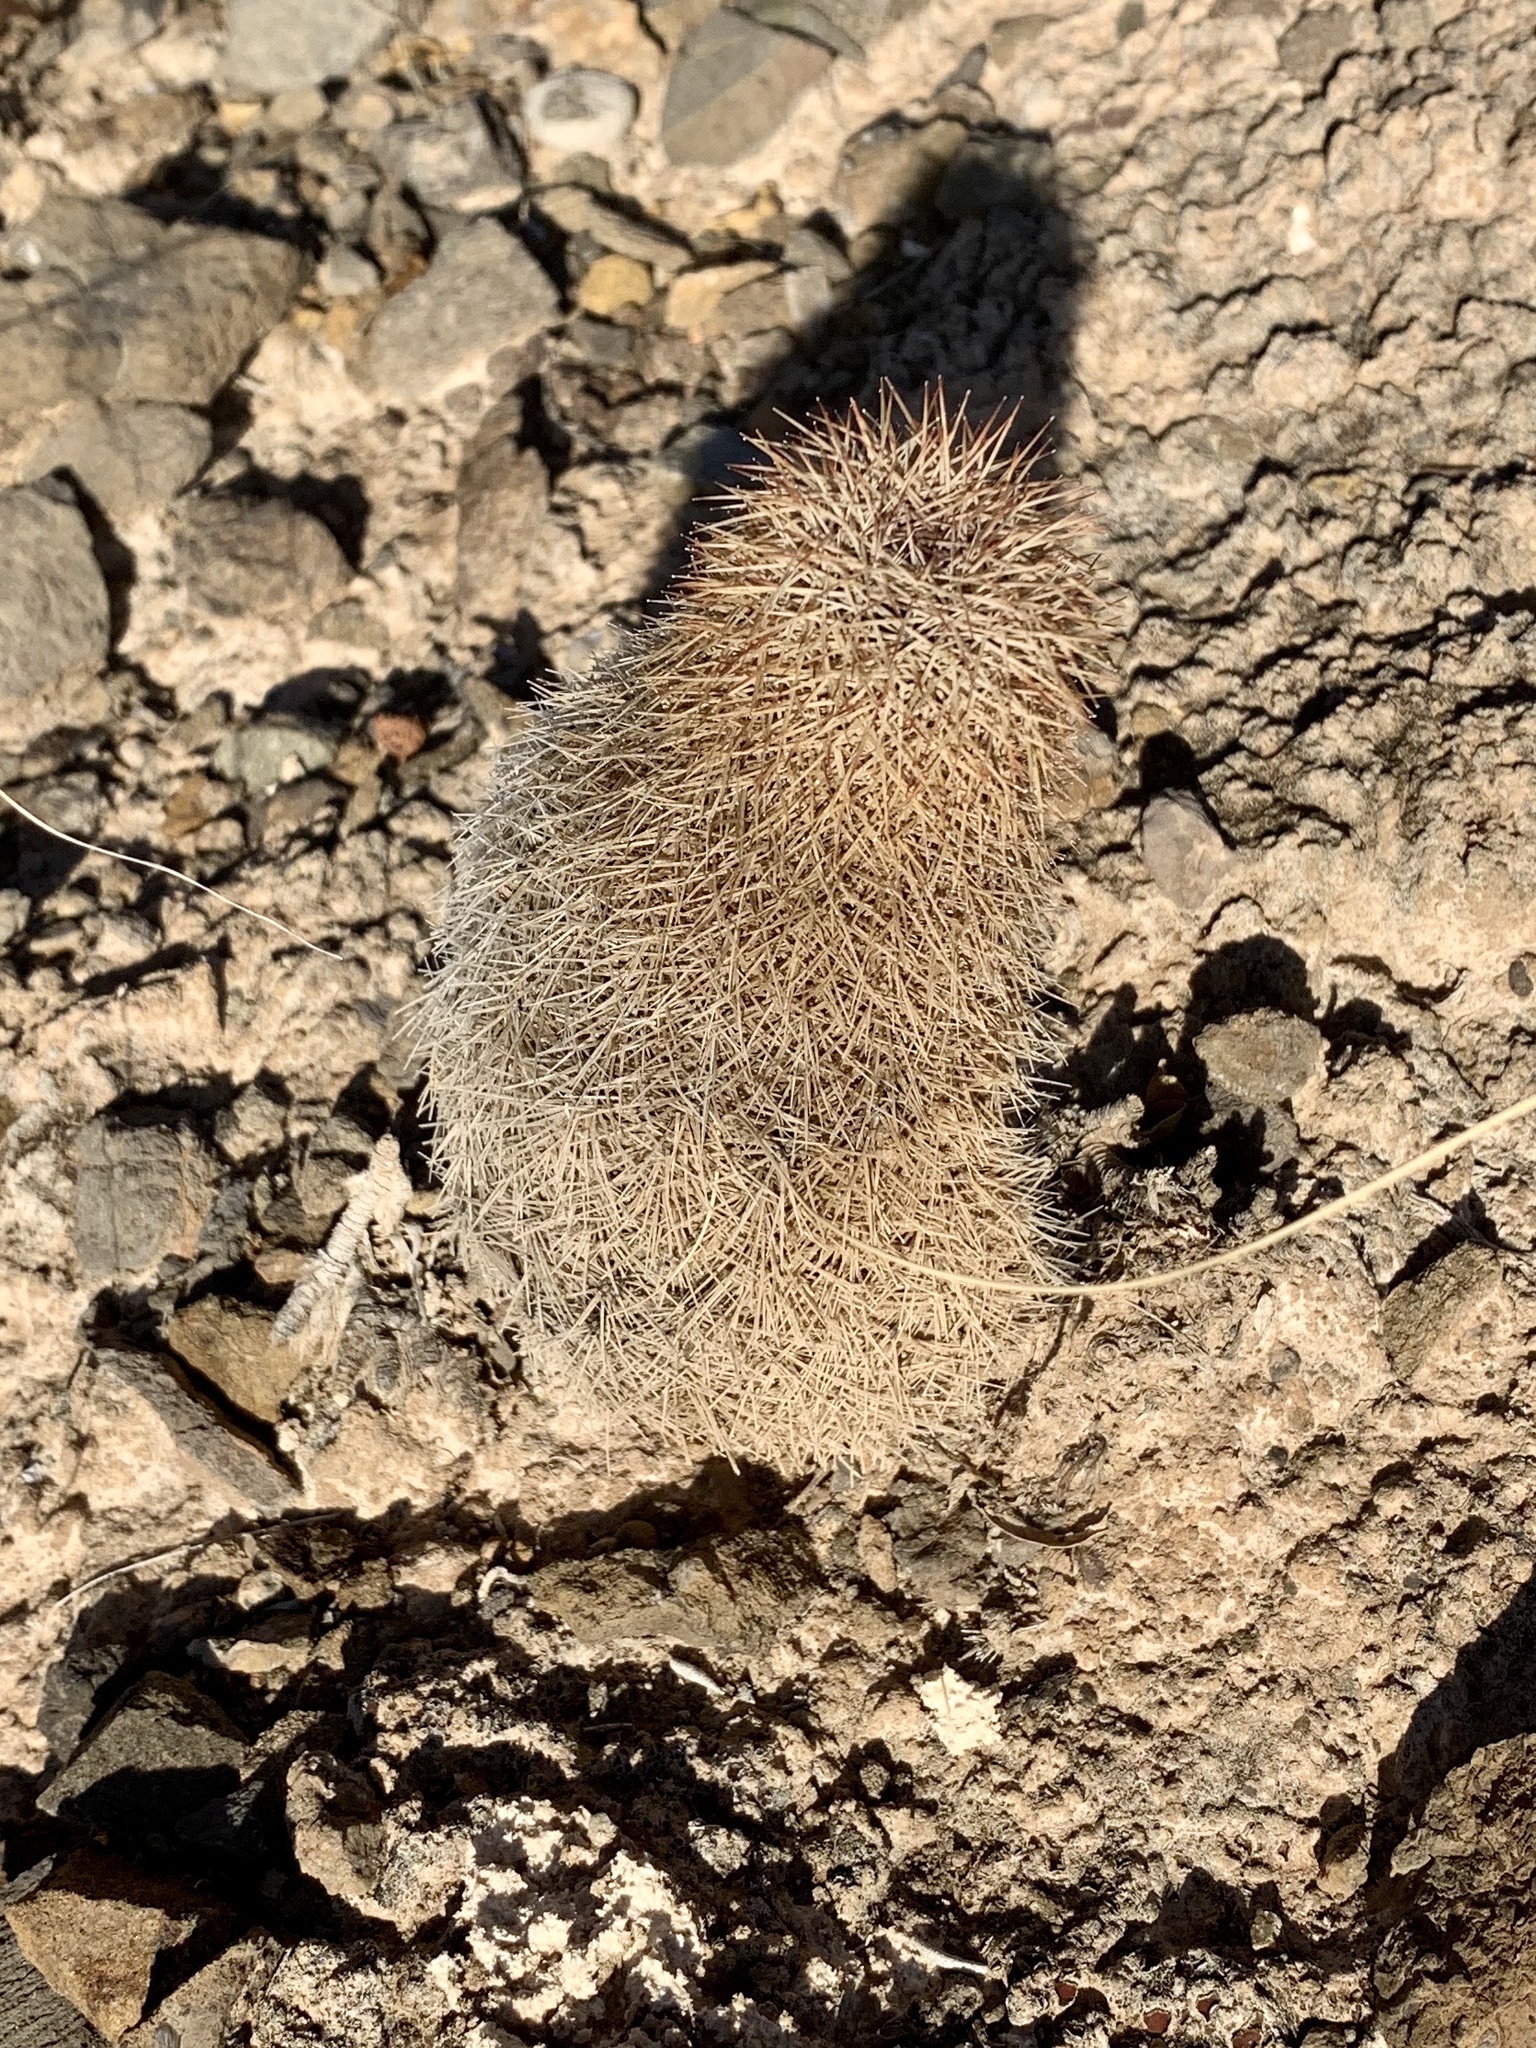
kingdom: Plantae
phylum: Tracheophyta
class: Magnoliopsida
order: Caryophyllales
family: Cactaceae
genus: Echinocereus
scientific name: Echinocereus dasyacanthus
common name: Spiny hedgehog cactus
